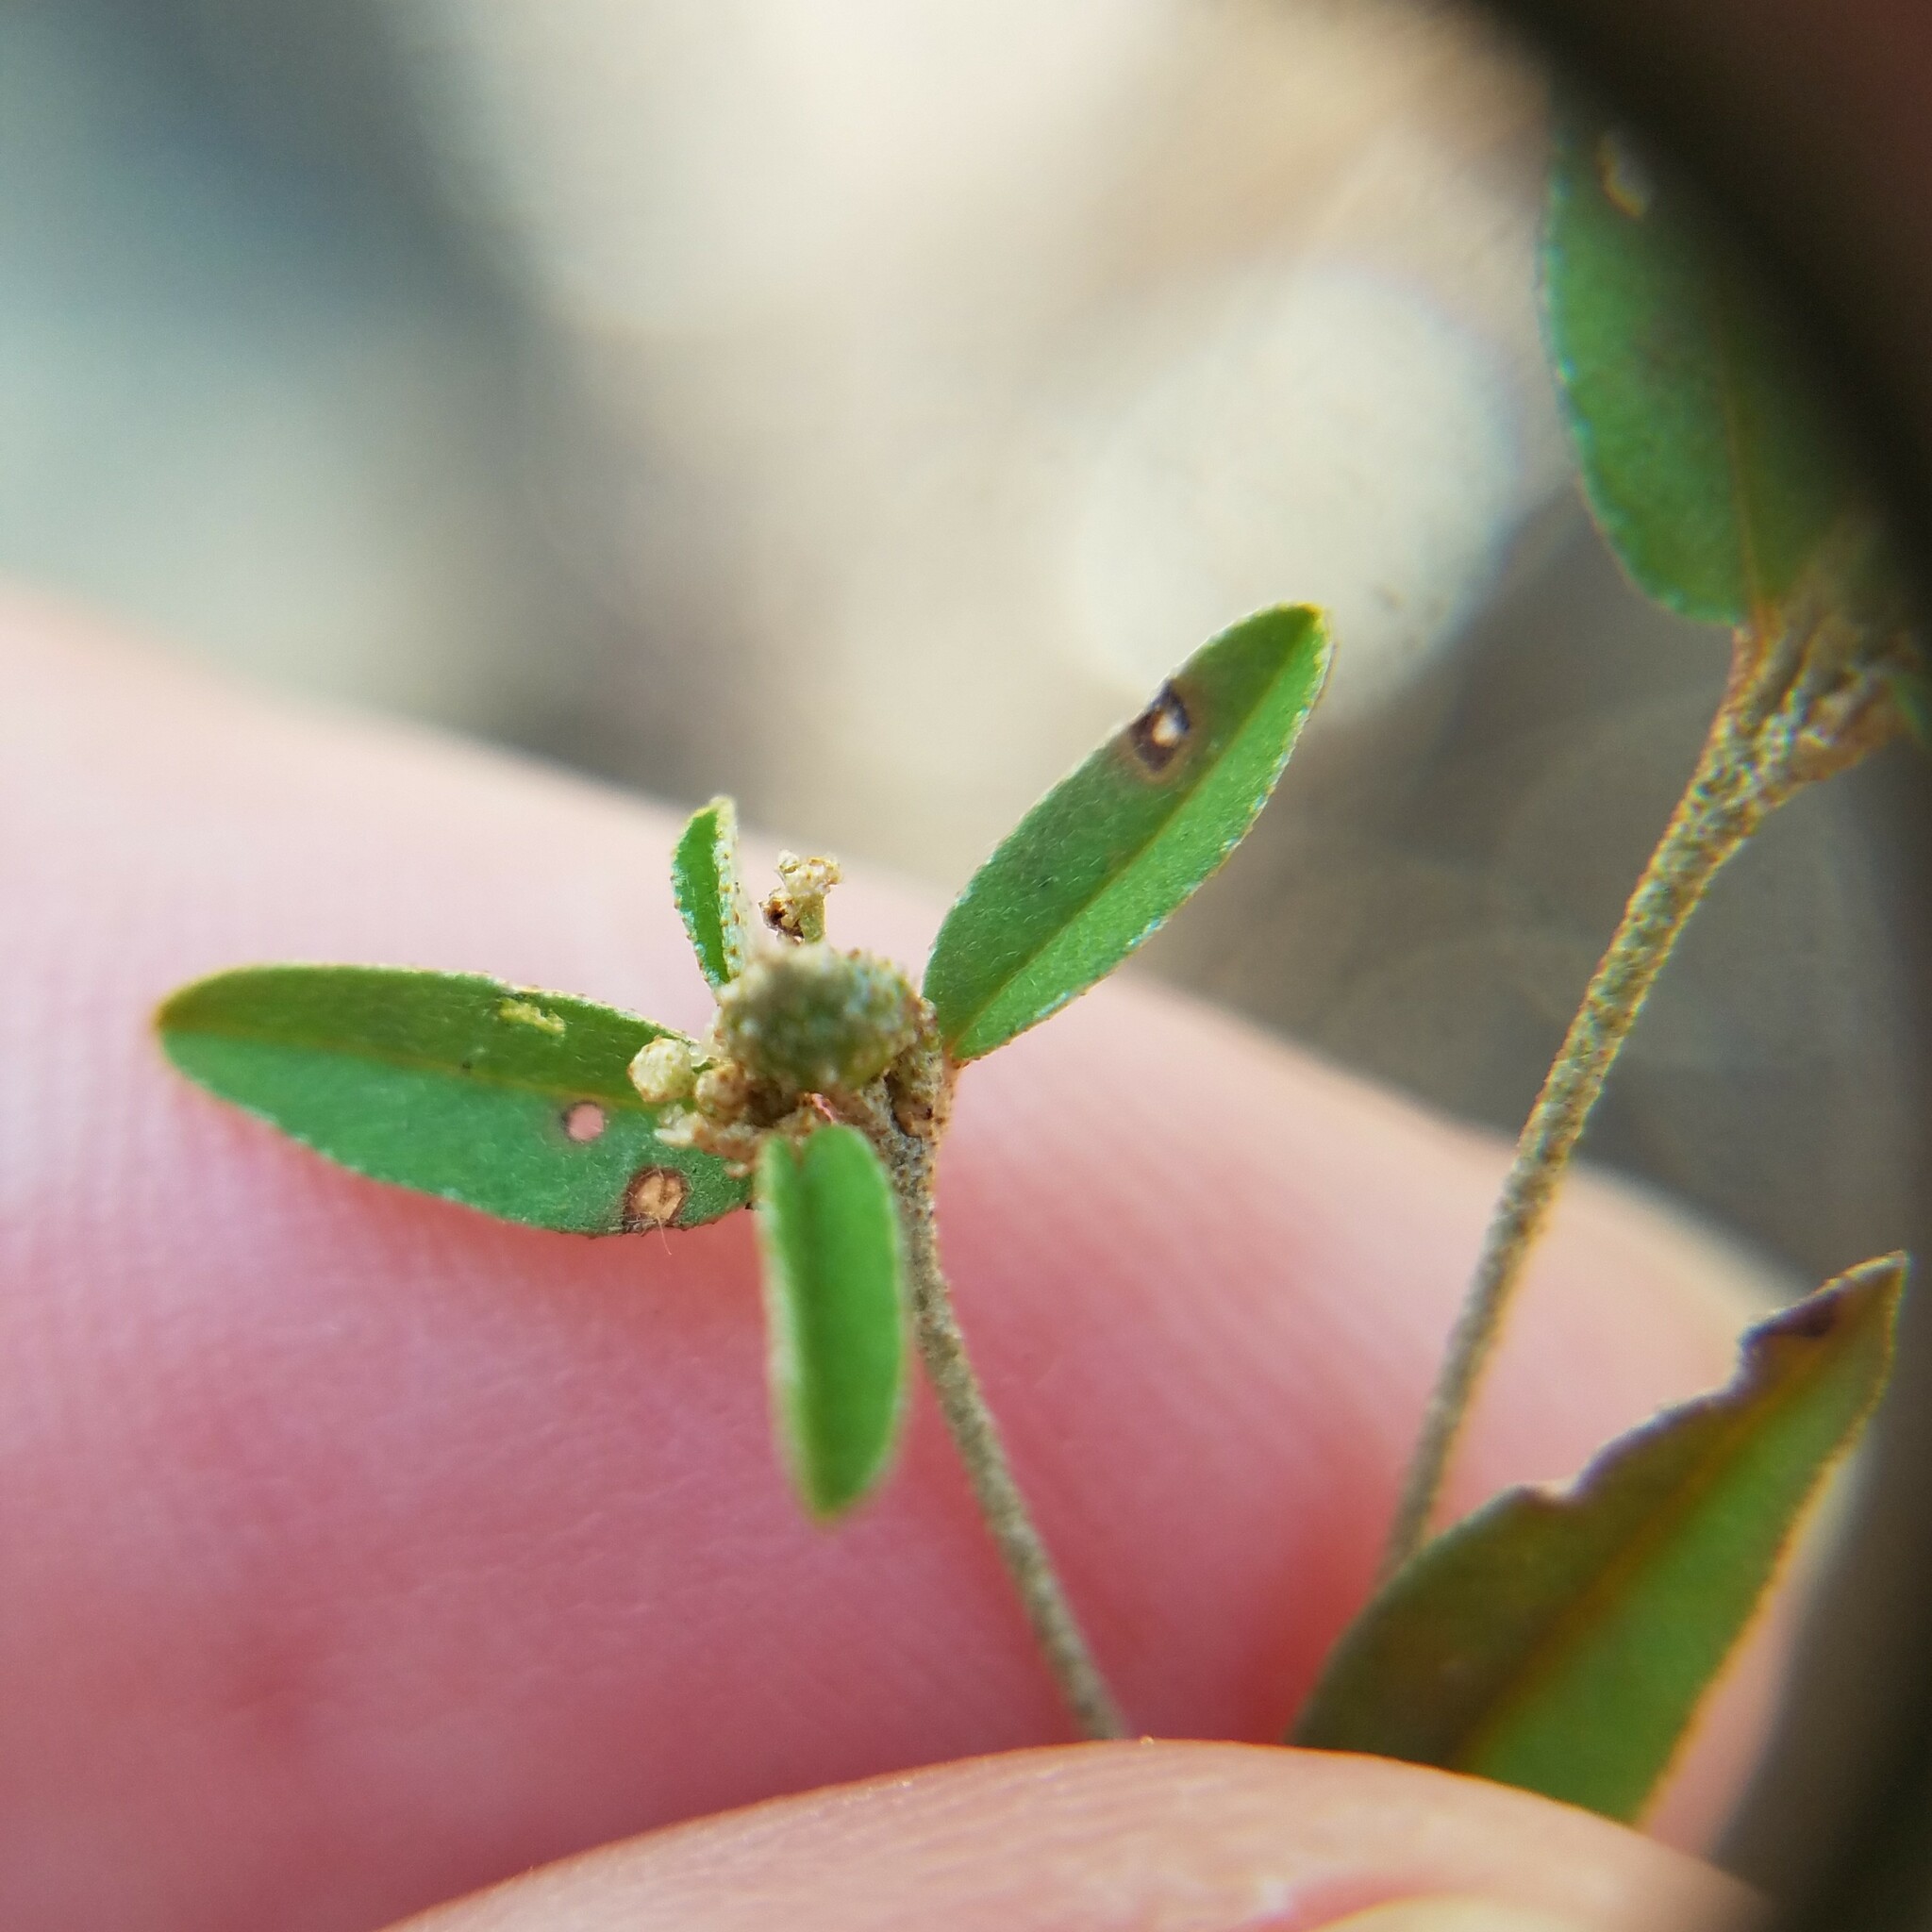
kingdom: Plantae
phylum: Tracheophyta
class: Magnoliopsida
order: Malpighiales
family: Euphorbiaceae
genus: Croton
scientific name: Croton michauxii
